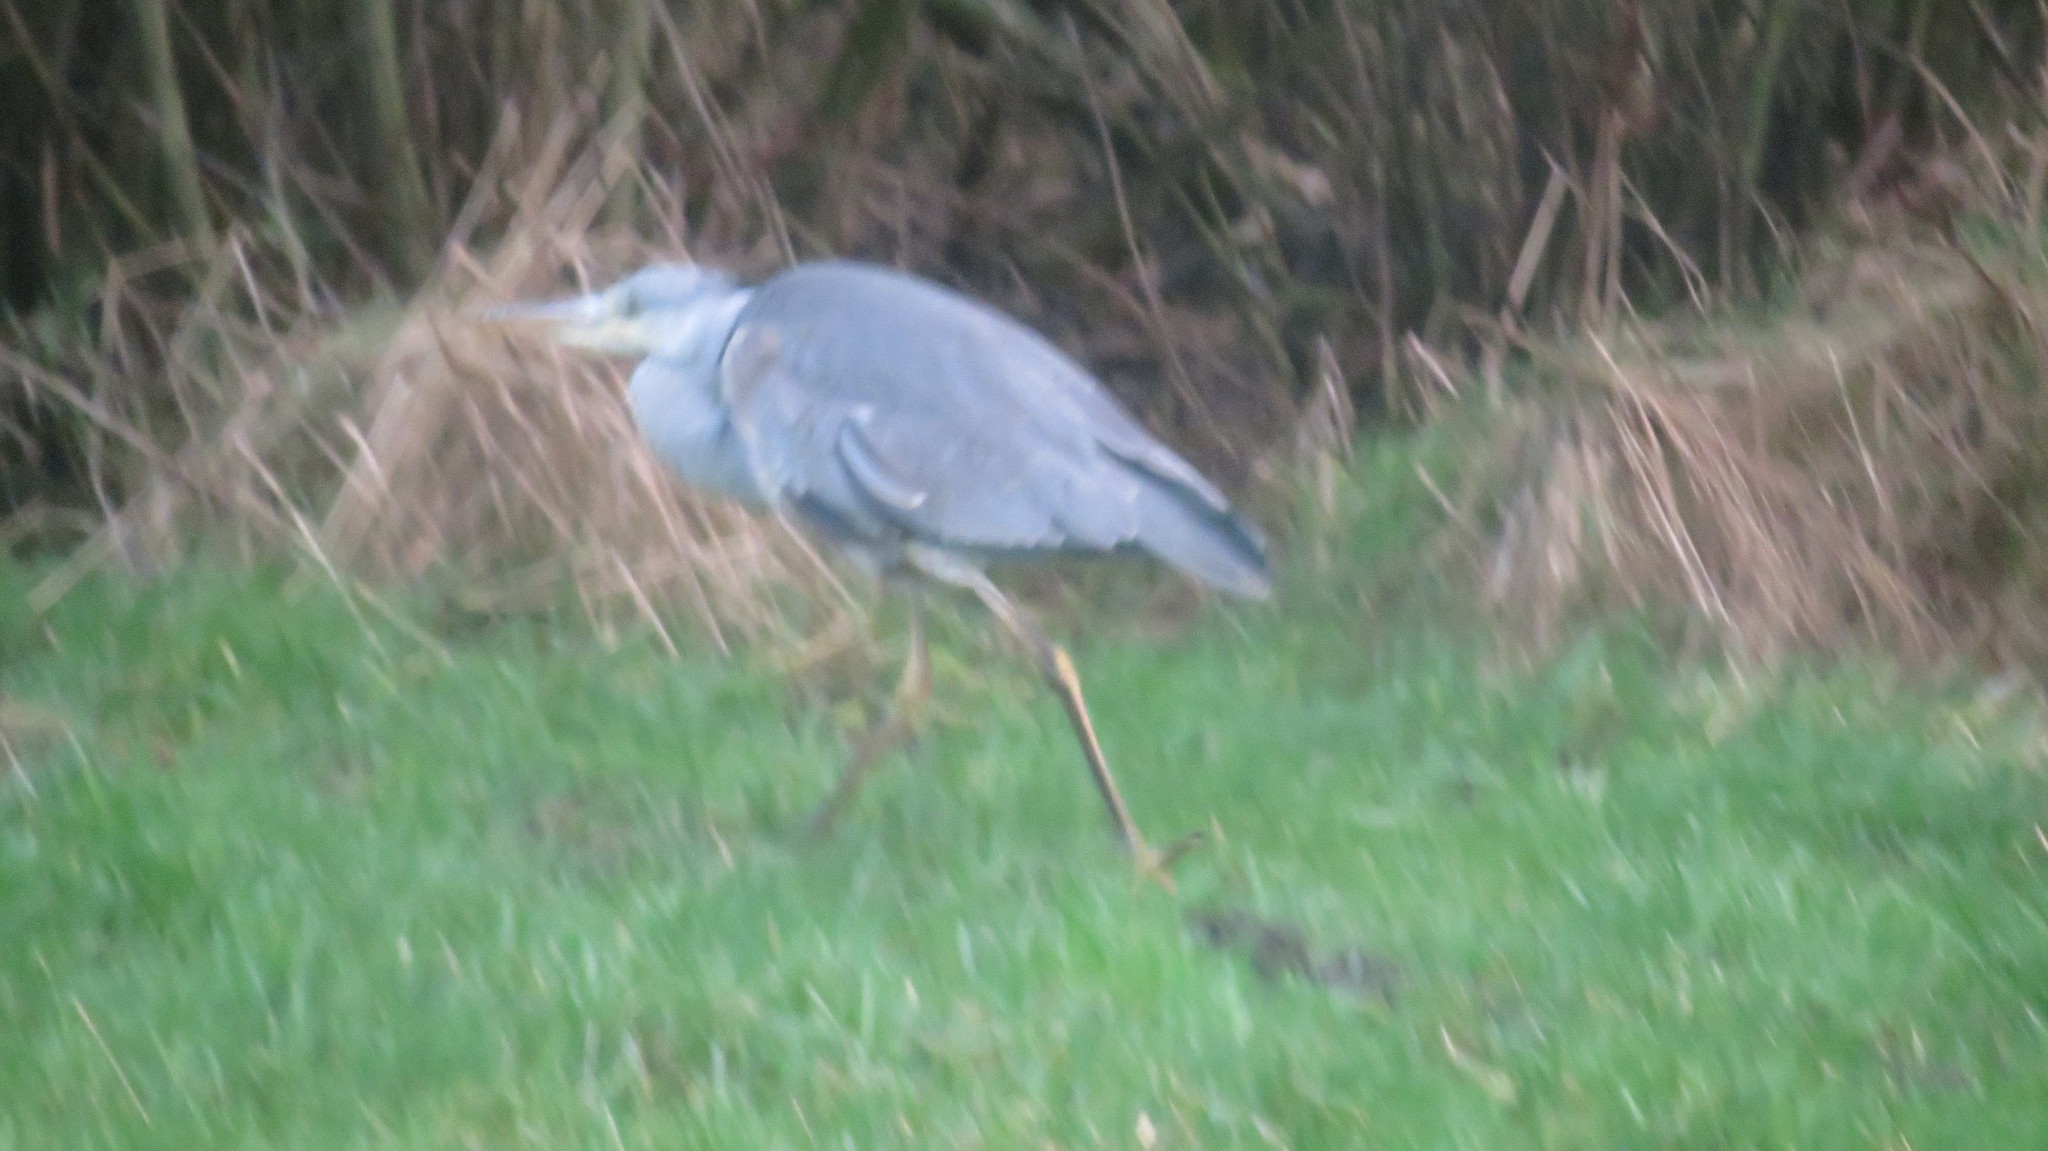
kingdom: Animalia
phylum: Chordata
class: Aves
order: Pelecaniformes
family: Ardeidae
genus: Ardea
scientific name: Ardea cinerea
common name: Grey heron
